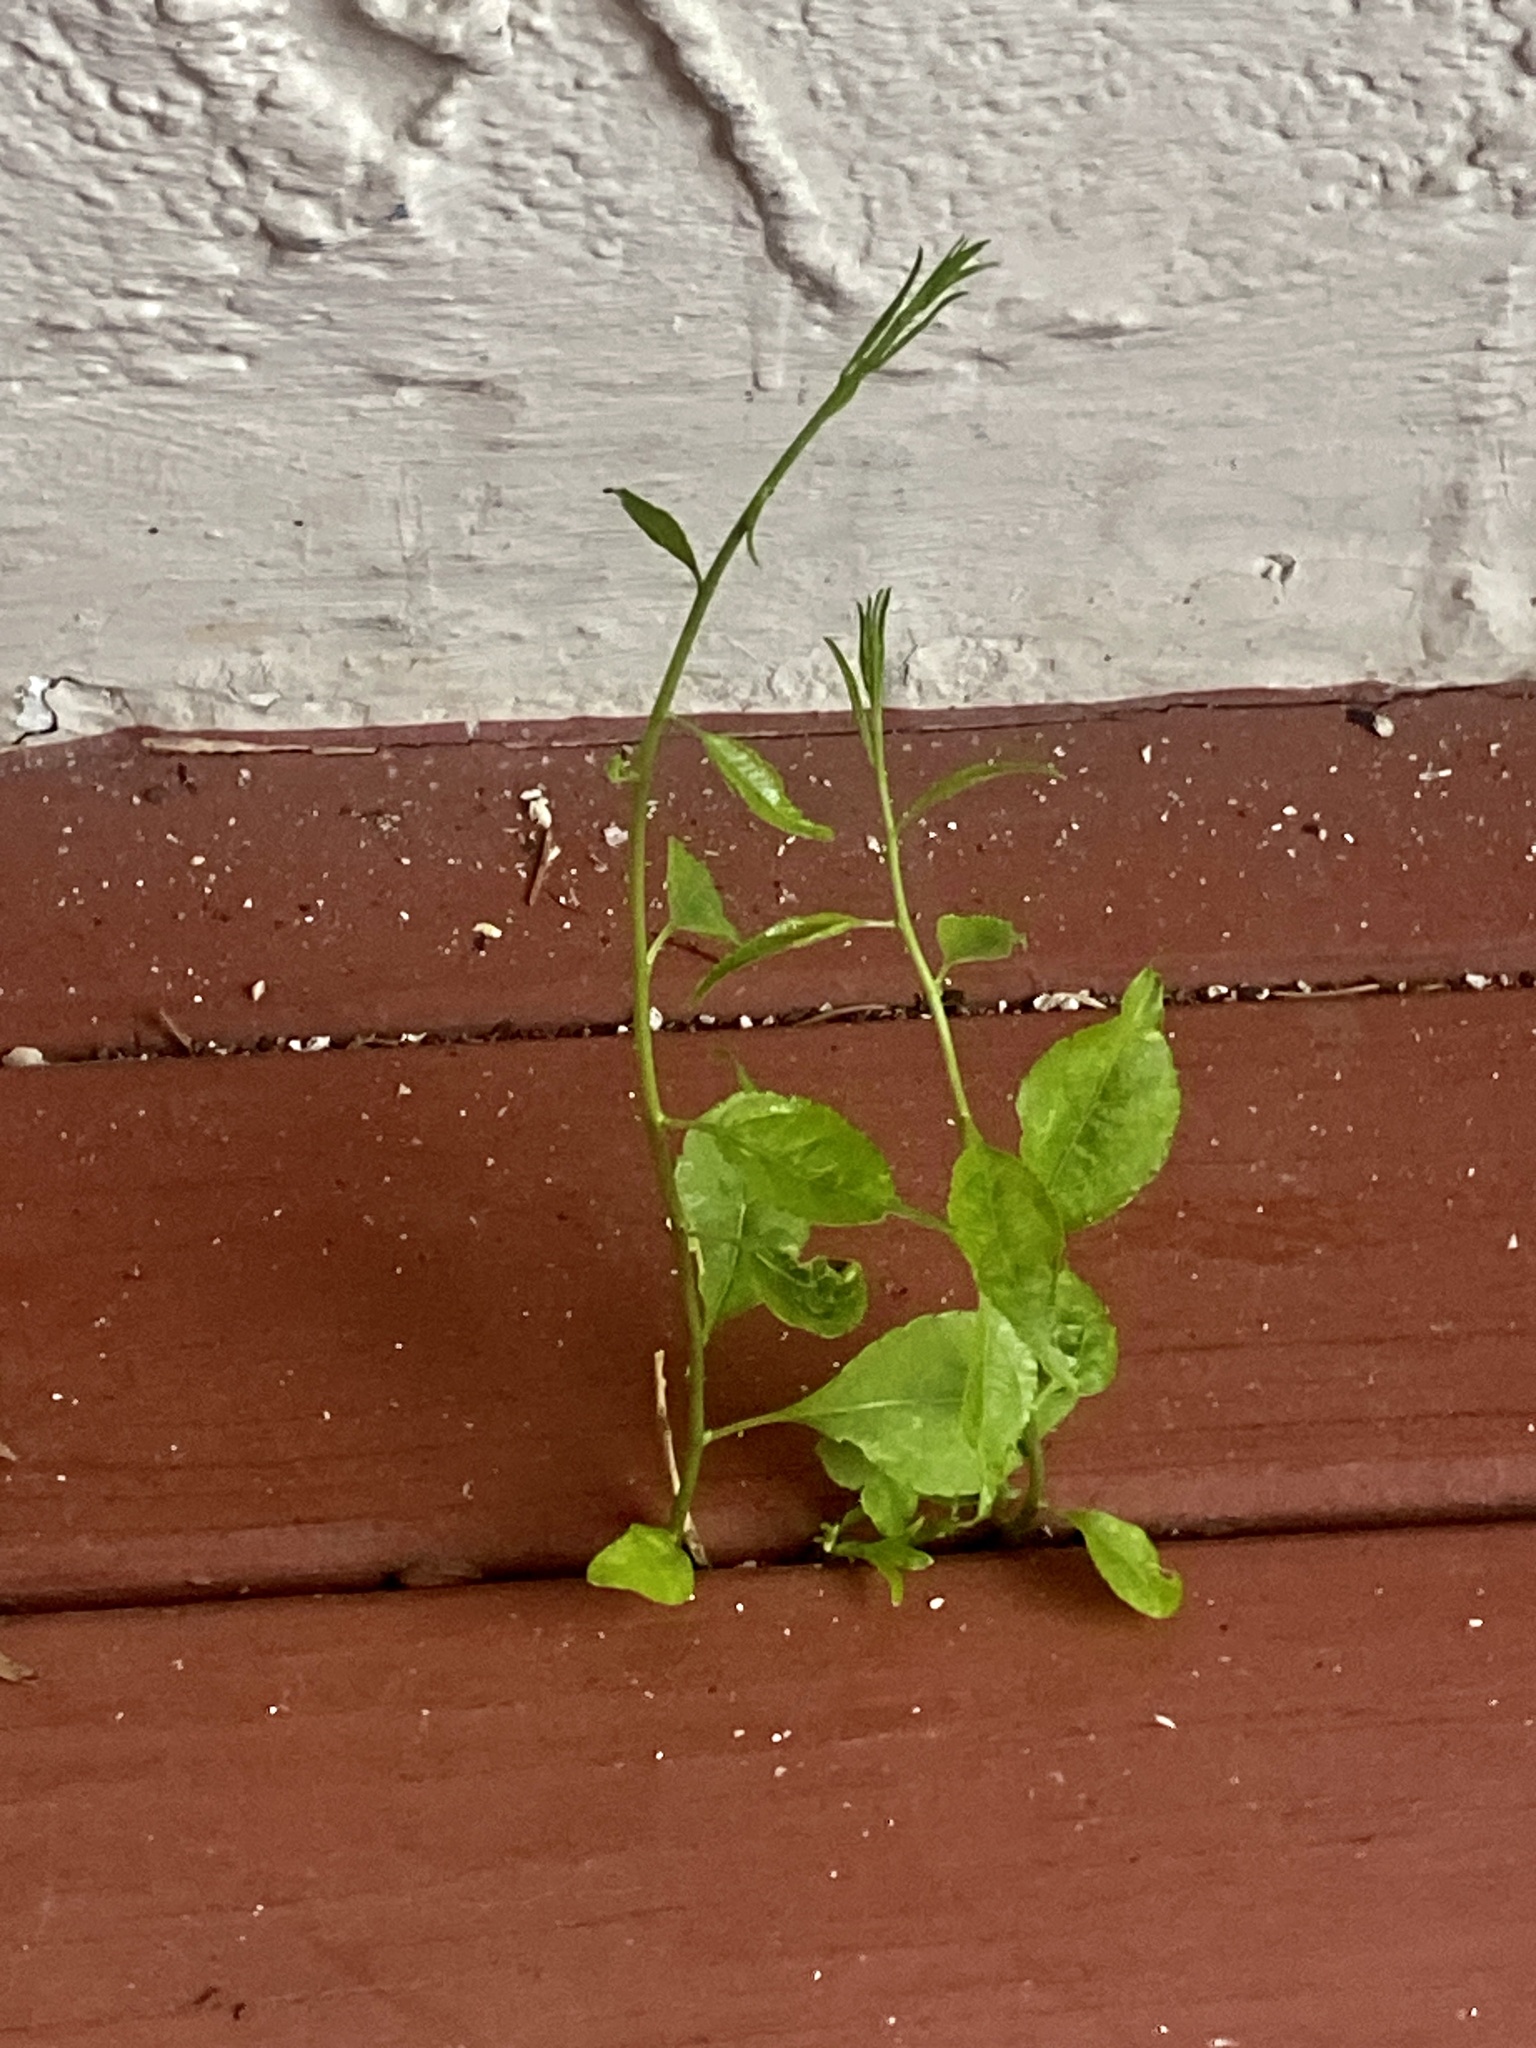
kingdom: Plantae
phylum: Tracheophyta
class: Magnoliopsida
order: Celastrales
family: Celastraceae
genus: Celastrus
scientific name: Celastrus orbiculatus
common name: Oriental bittersweet
